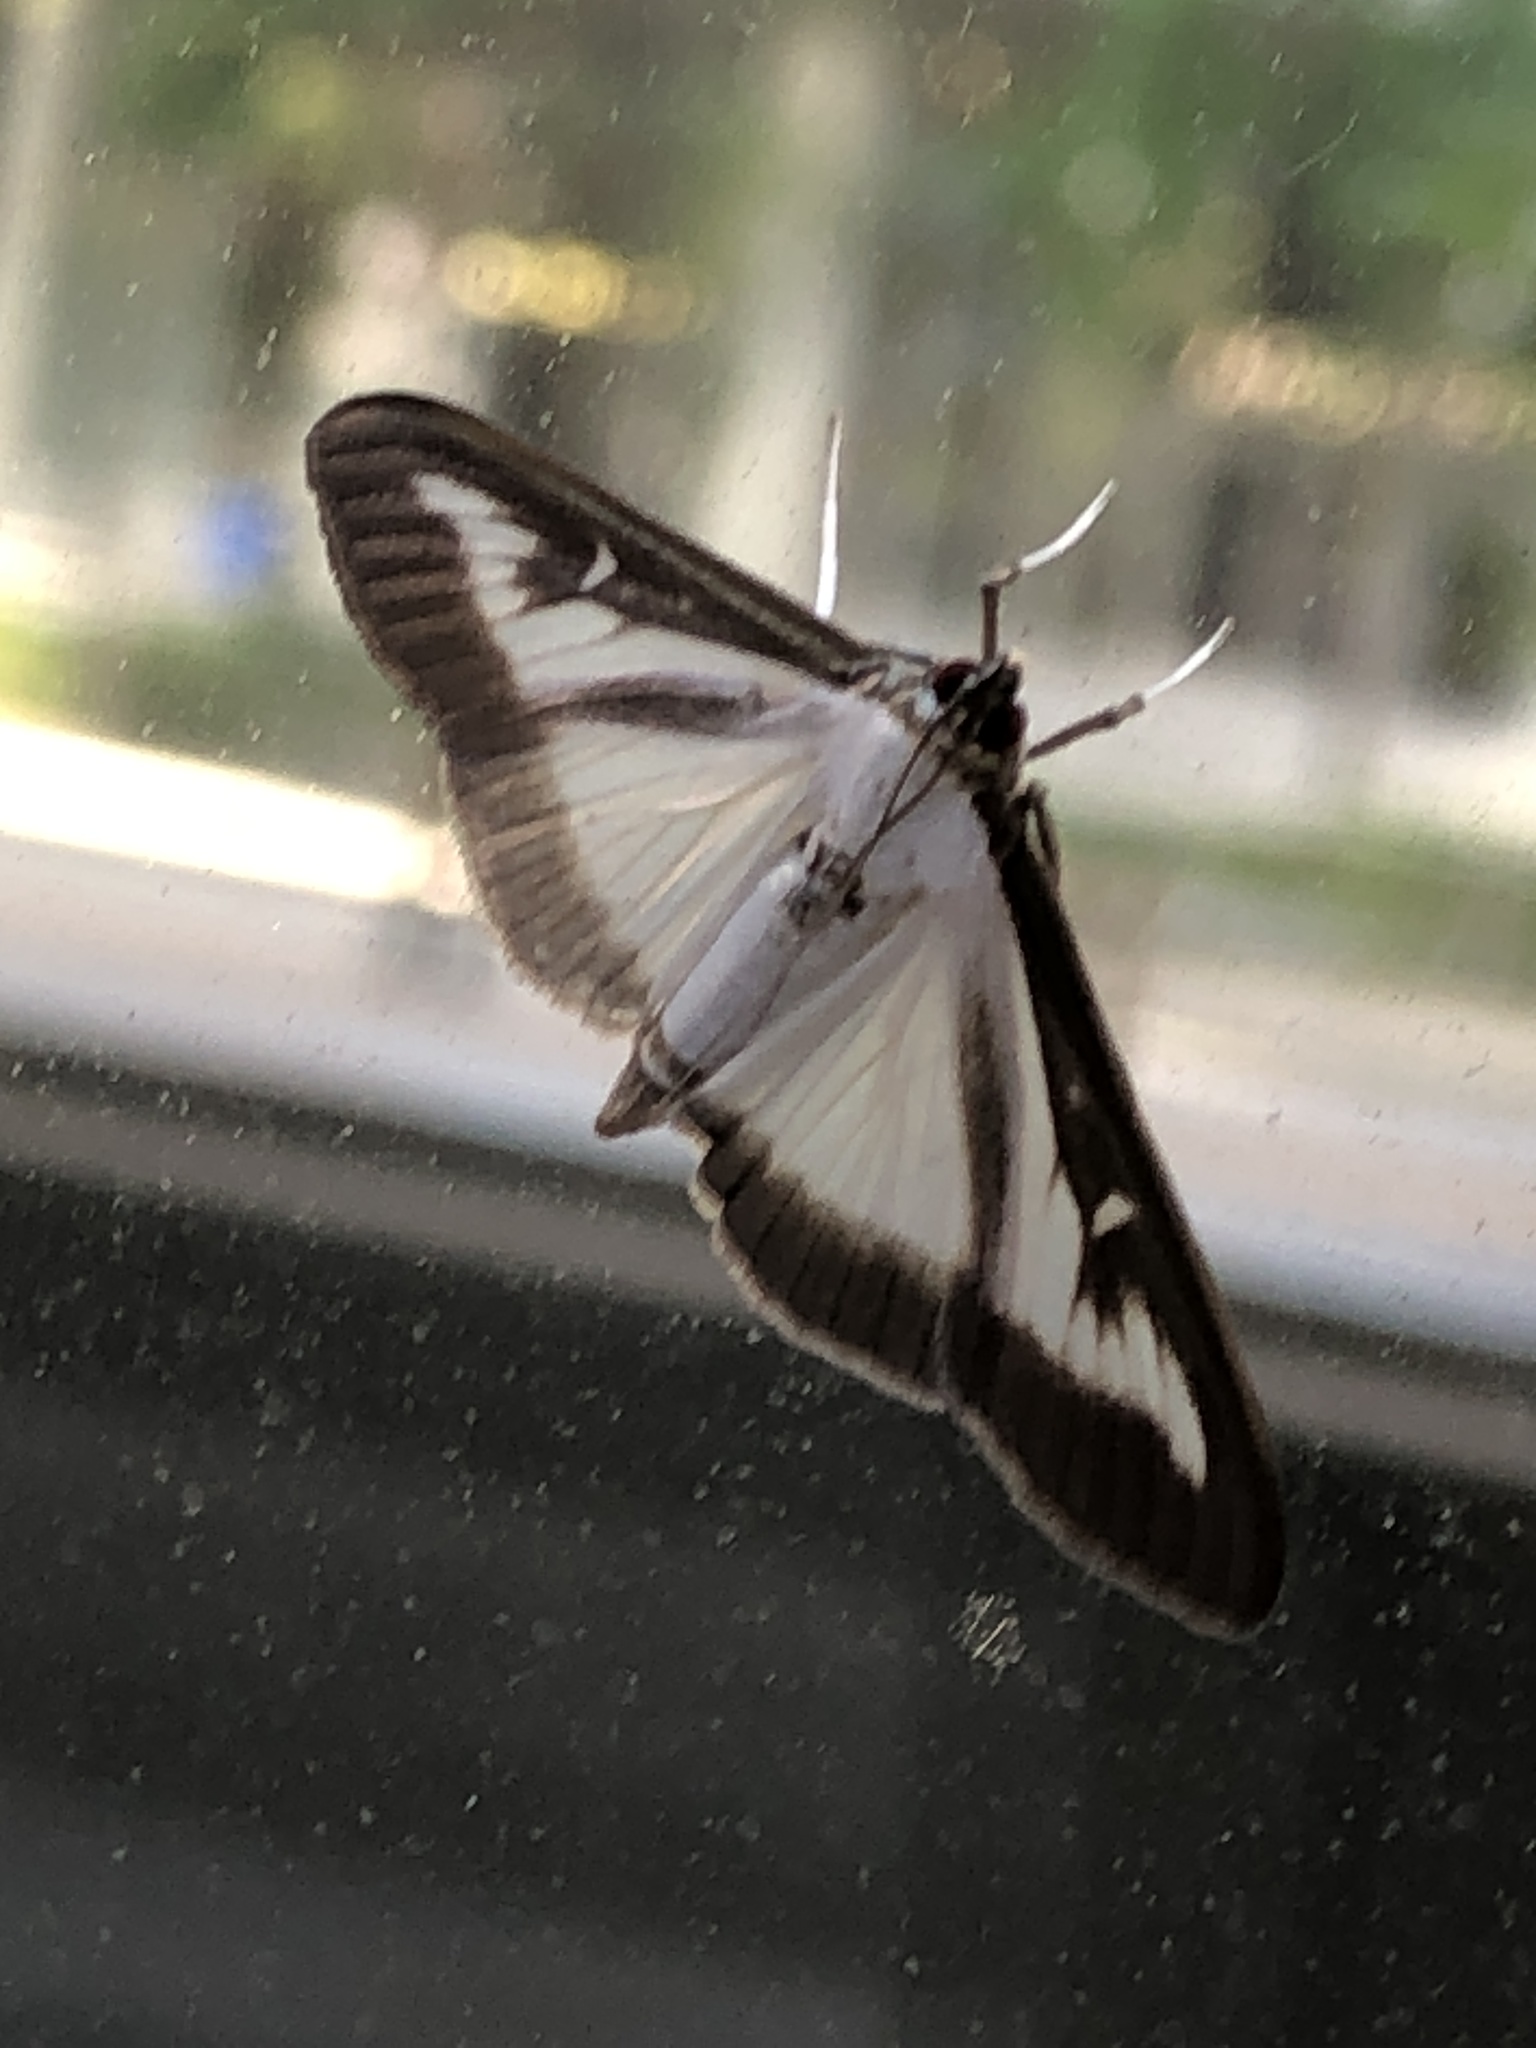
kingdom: Animalia
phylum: Arthropoda
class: Insecta
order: Lepidoptera
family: Crambidae
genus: Cydalima
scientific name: Cydalima perspectalis
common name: Box tree moth
